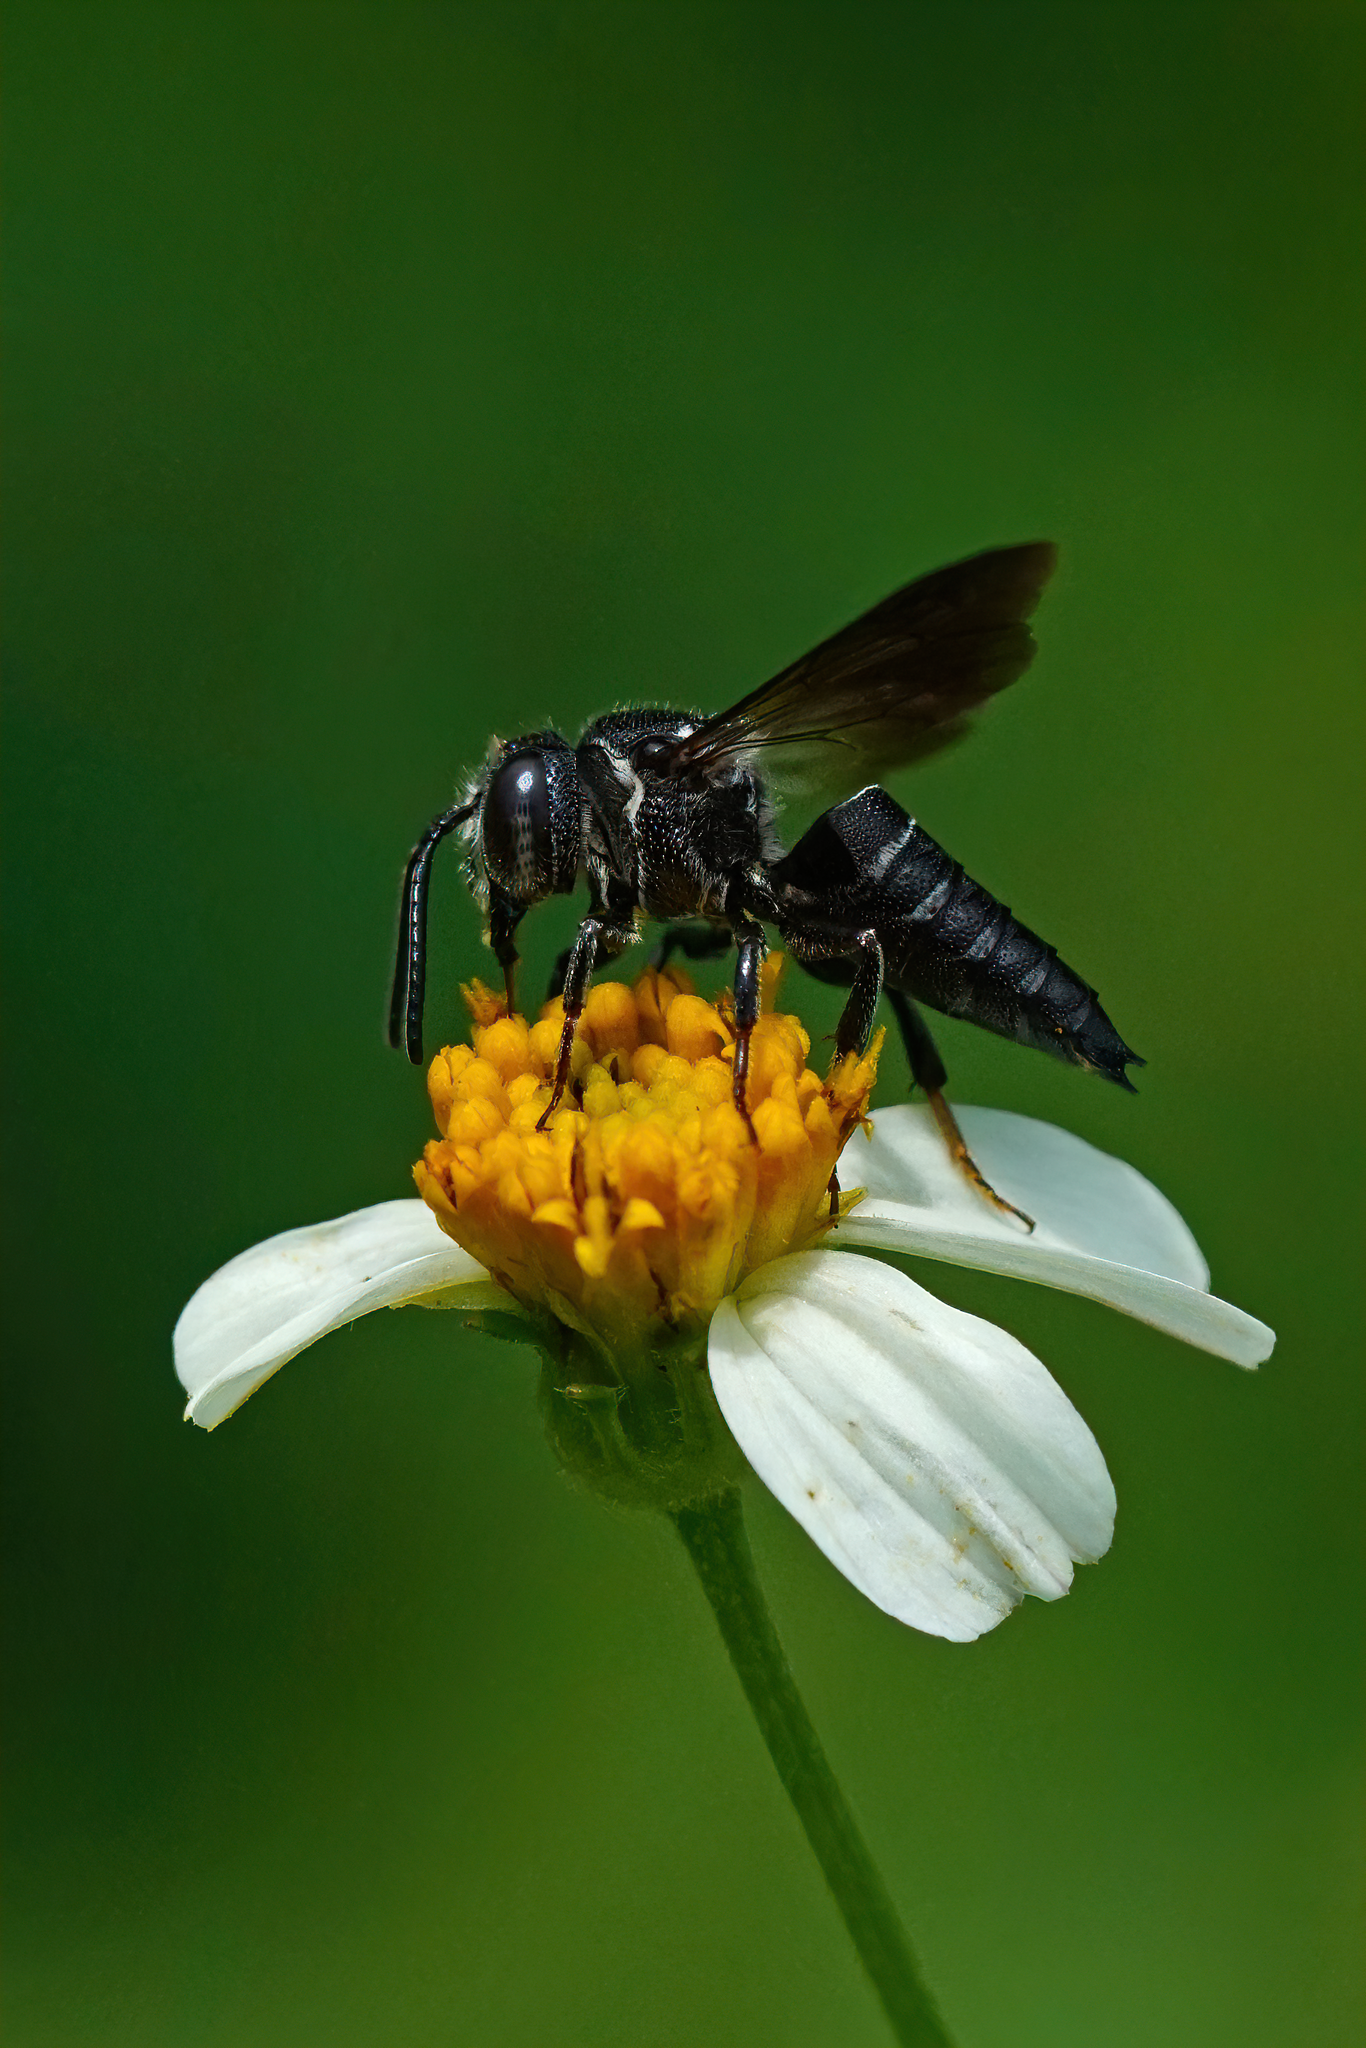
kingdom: Animalia
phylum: Arthropoda
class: Insecta
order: Hymenoptera
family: Megachilidae
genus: Coelioxys
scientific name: Coelioxys dolichos
